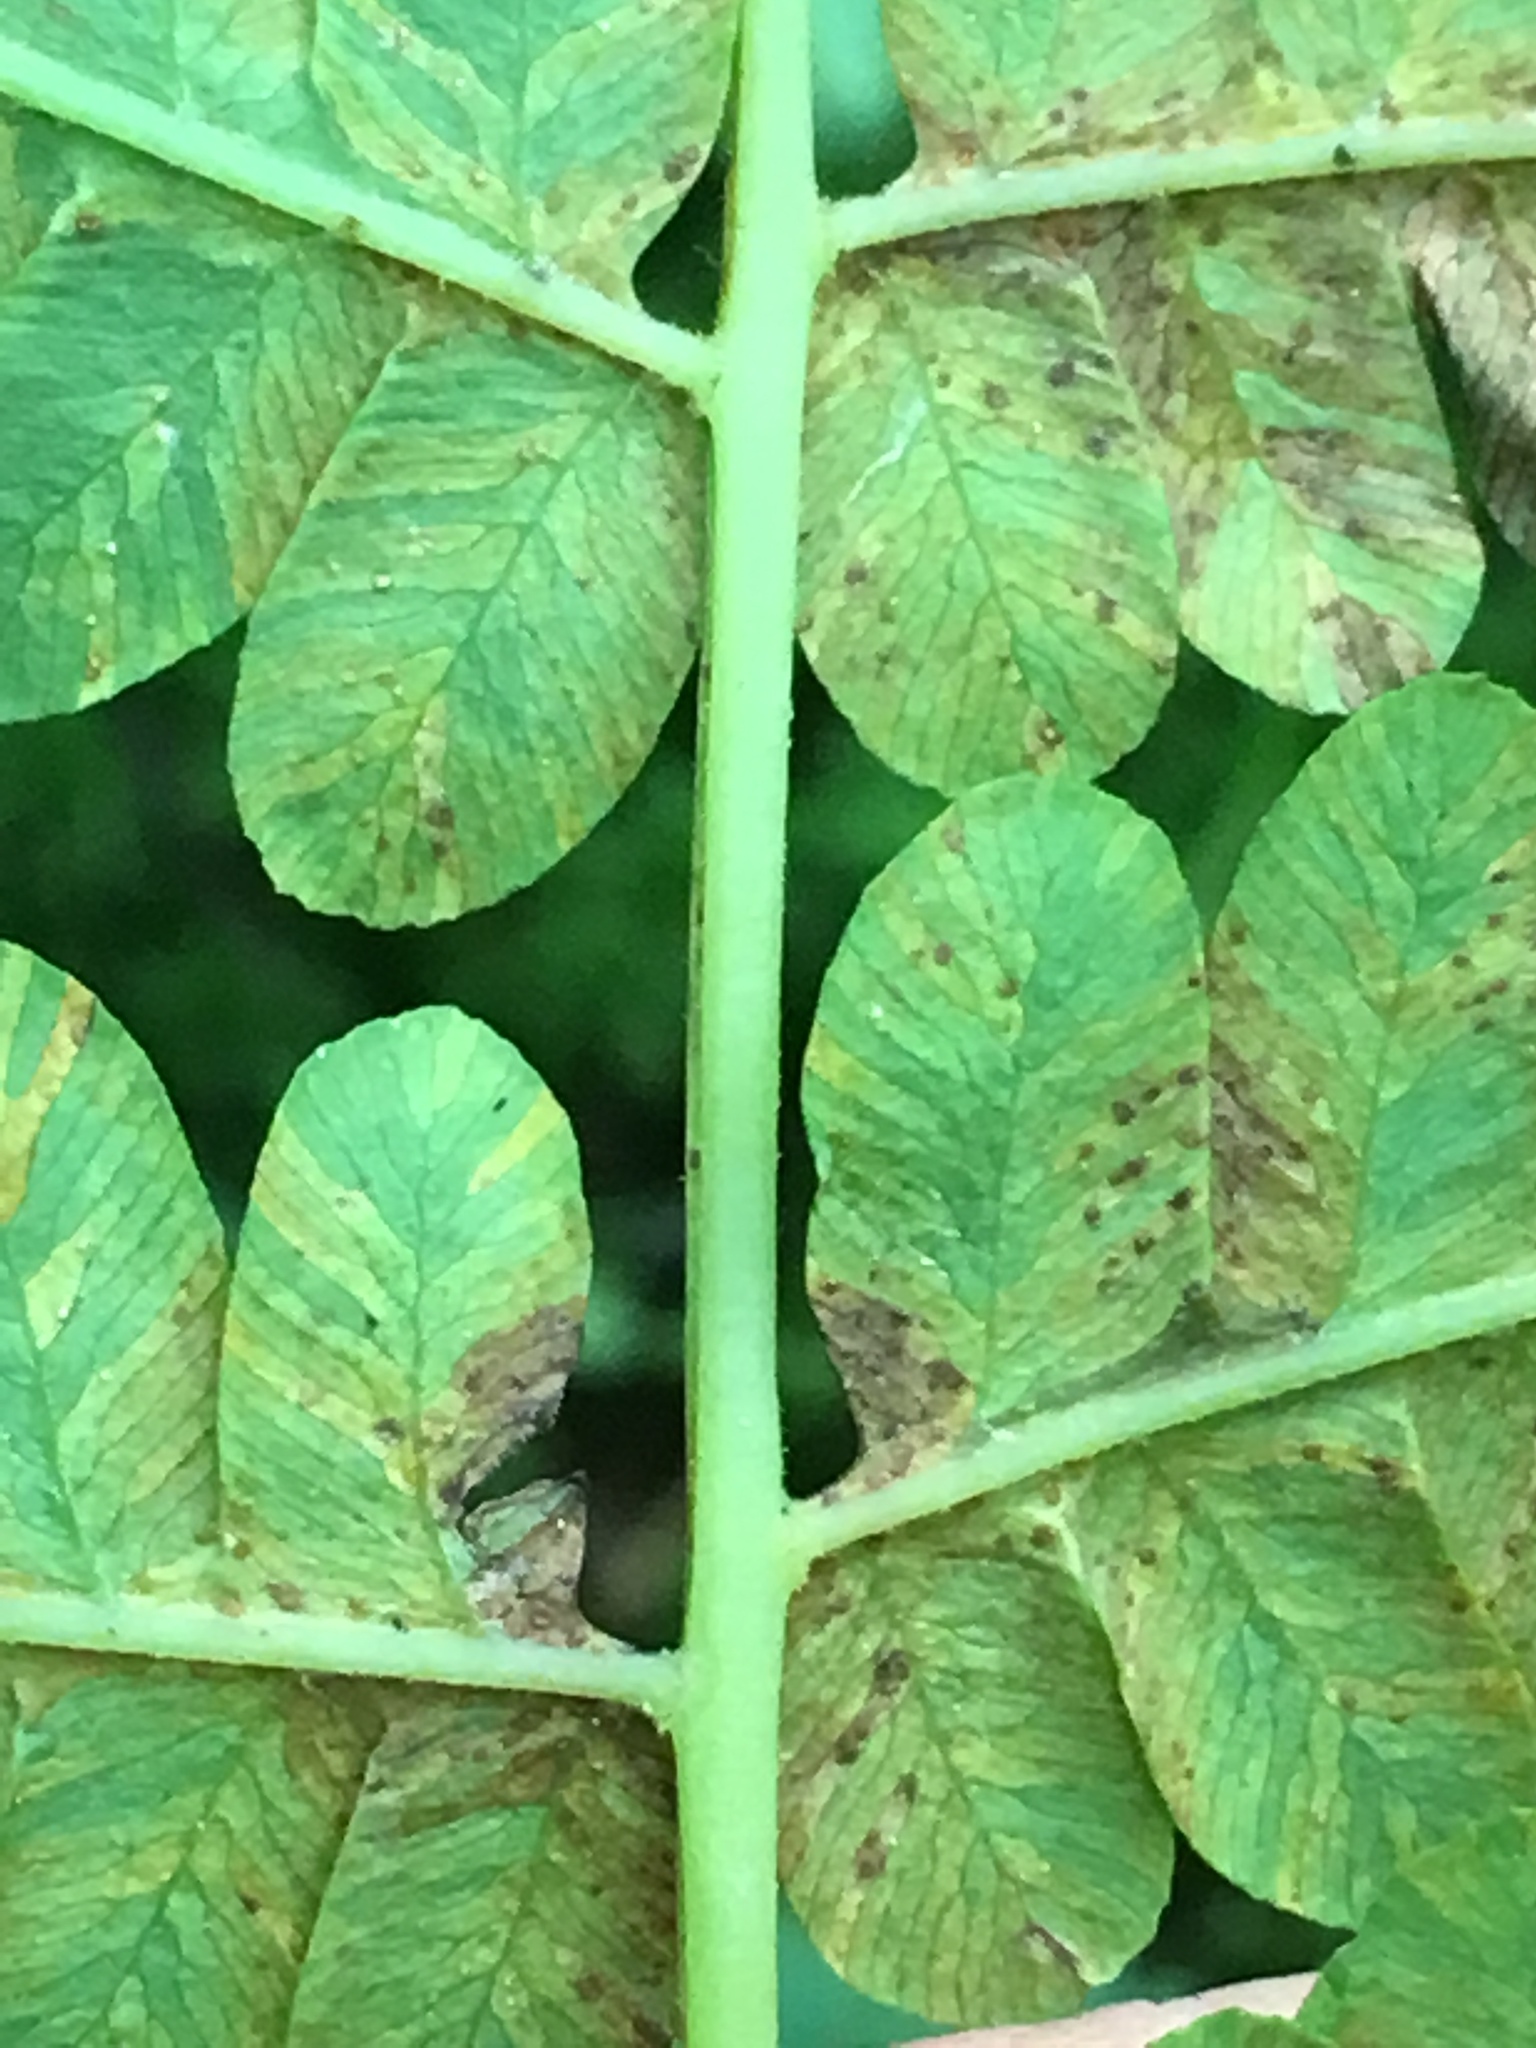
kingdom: Plantae
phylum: Tracheophyta
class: Polypodiopsida
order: Osmundales
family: Osmundaceae
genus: Claytosmunda
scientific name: Claytosmunda claytoniana
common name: Clayton's fern
